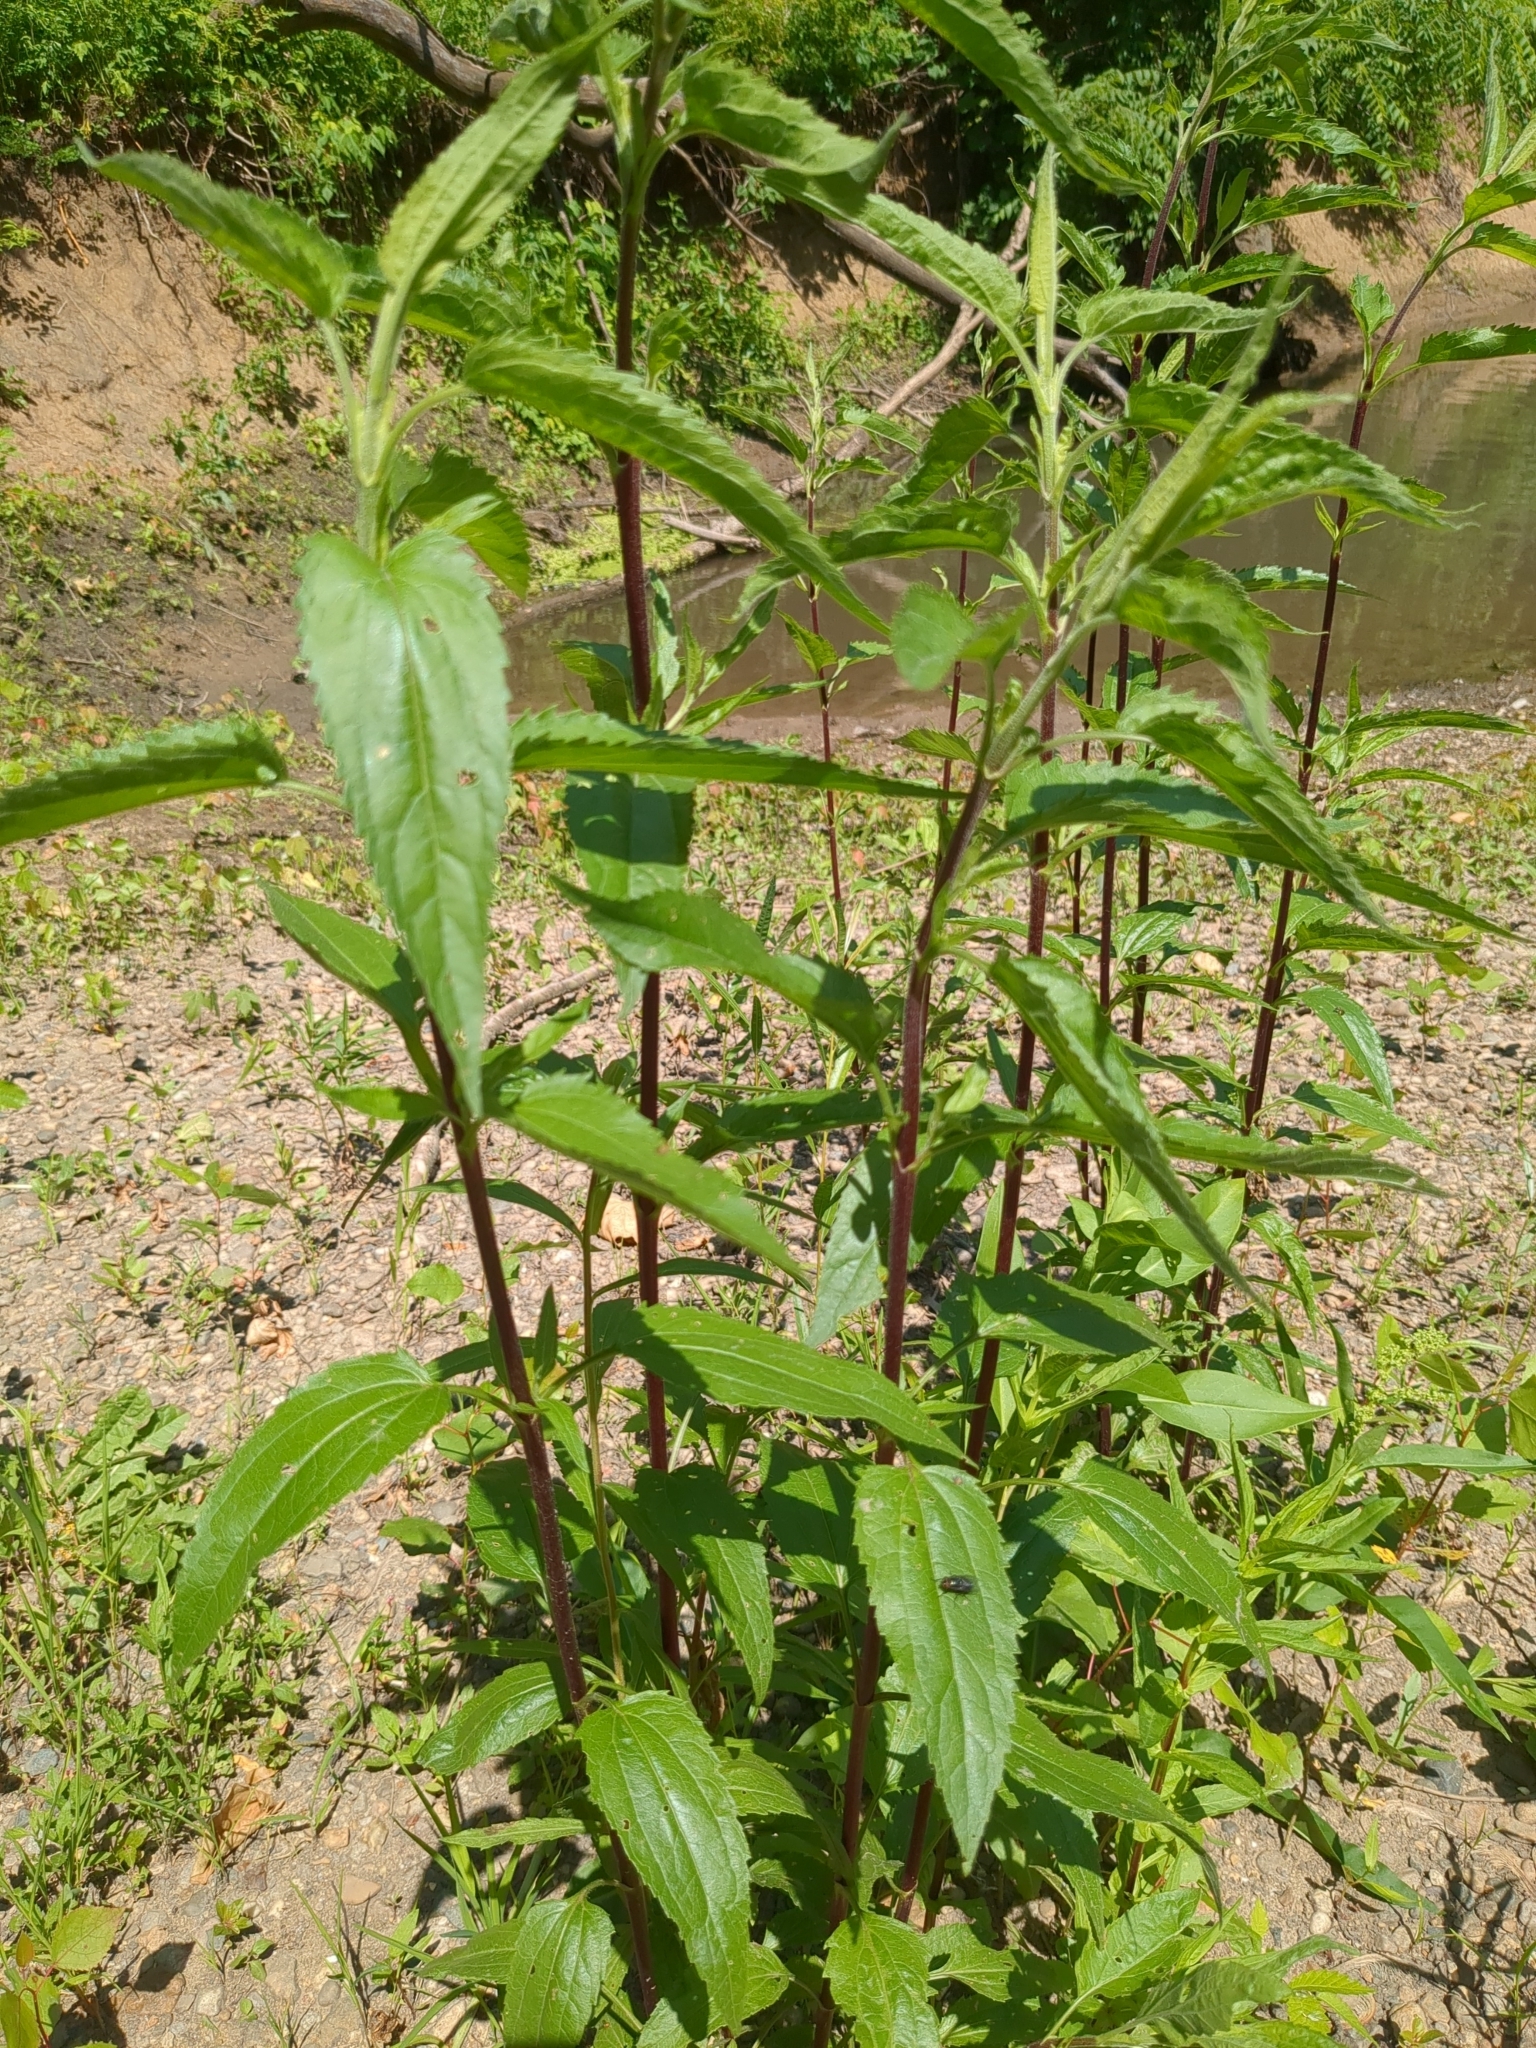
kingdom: Plantae
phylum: Tracheophyta
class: Magnoliopsida
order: Asterales
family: Asteraceae
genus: Eupatorium
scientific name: Eupatorium serotinum
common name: Late boneset
